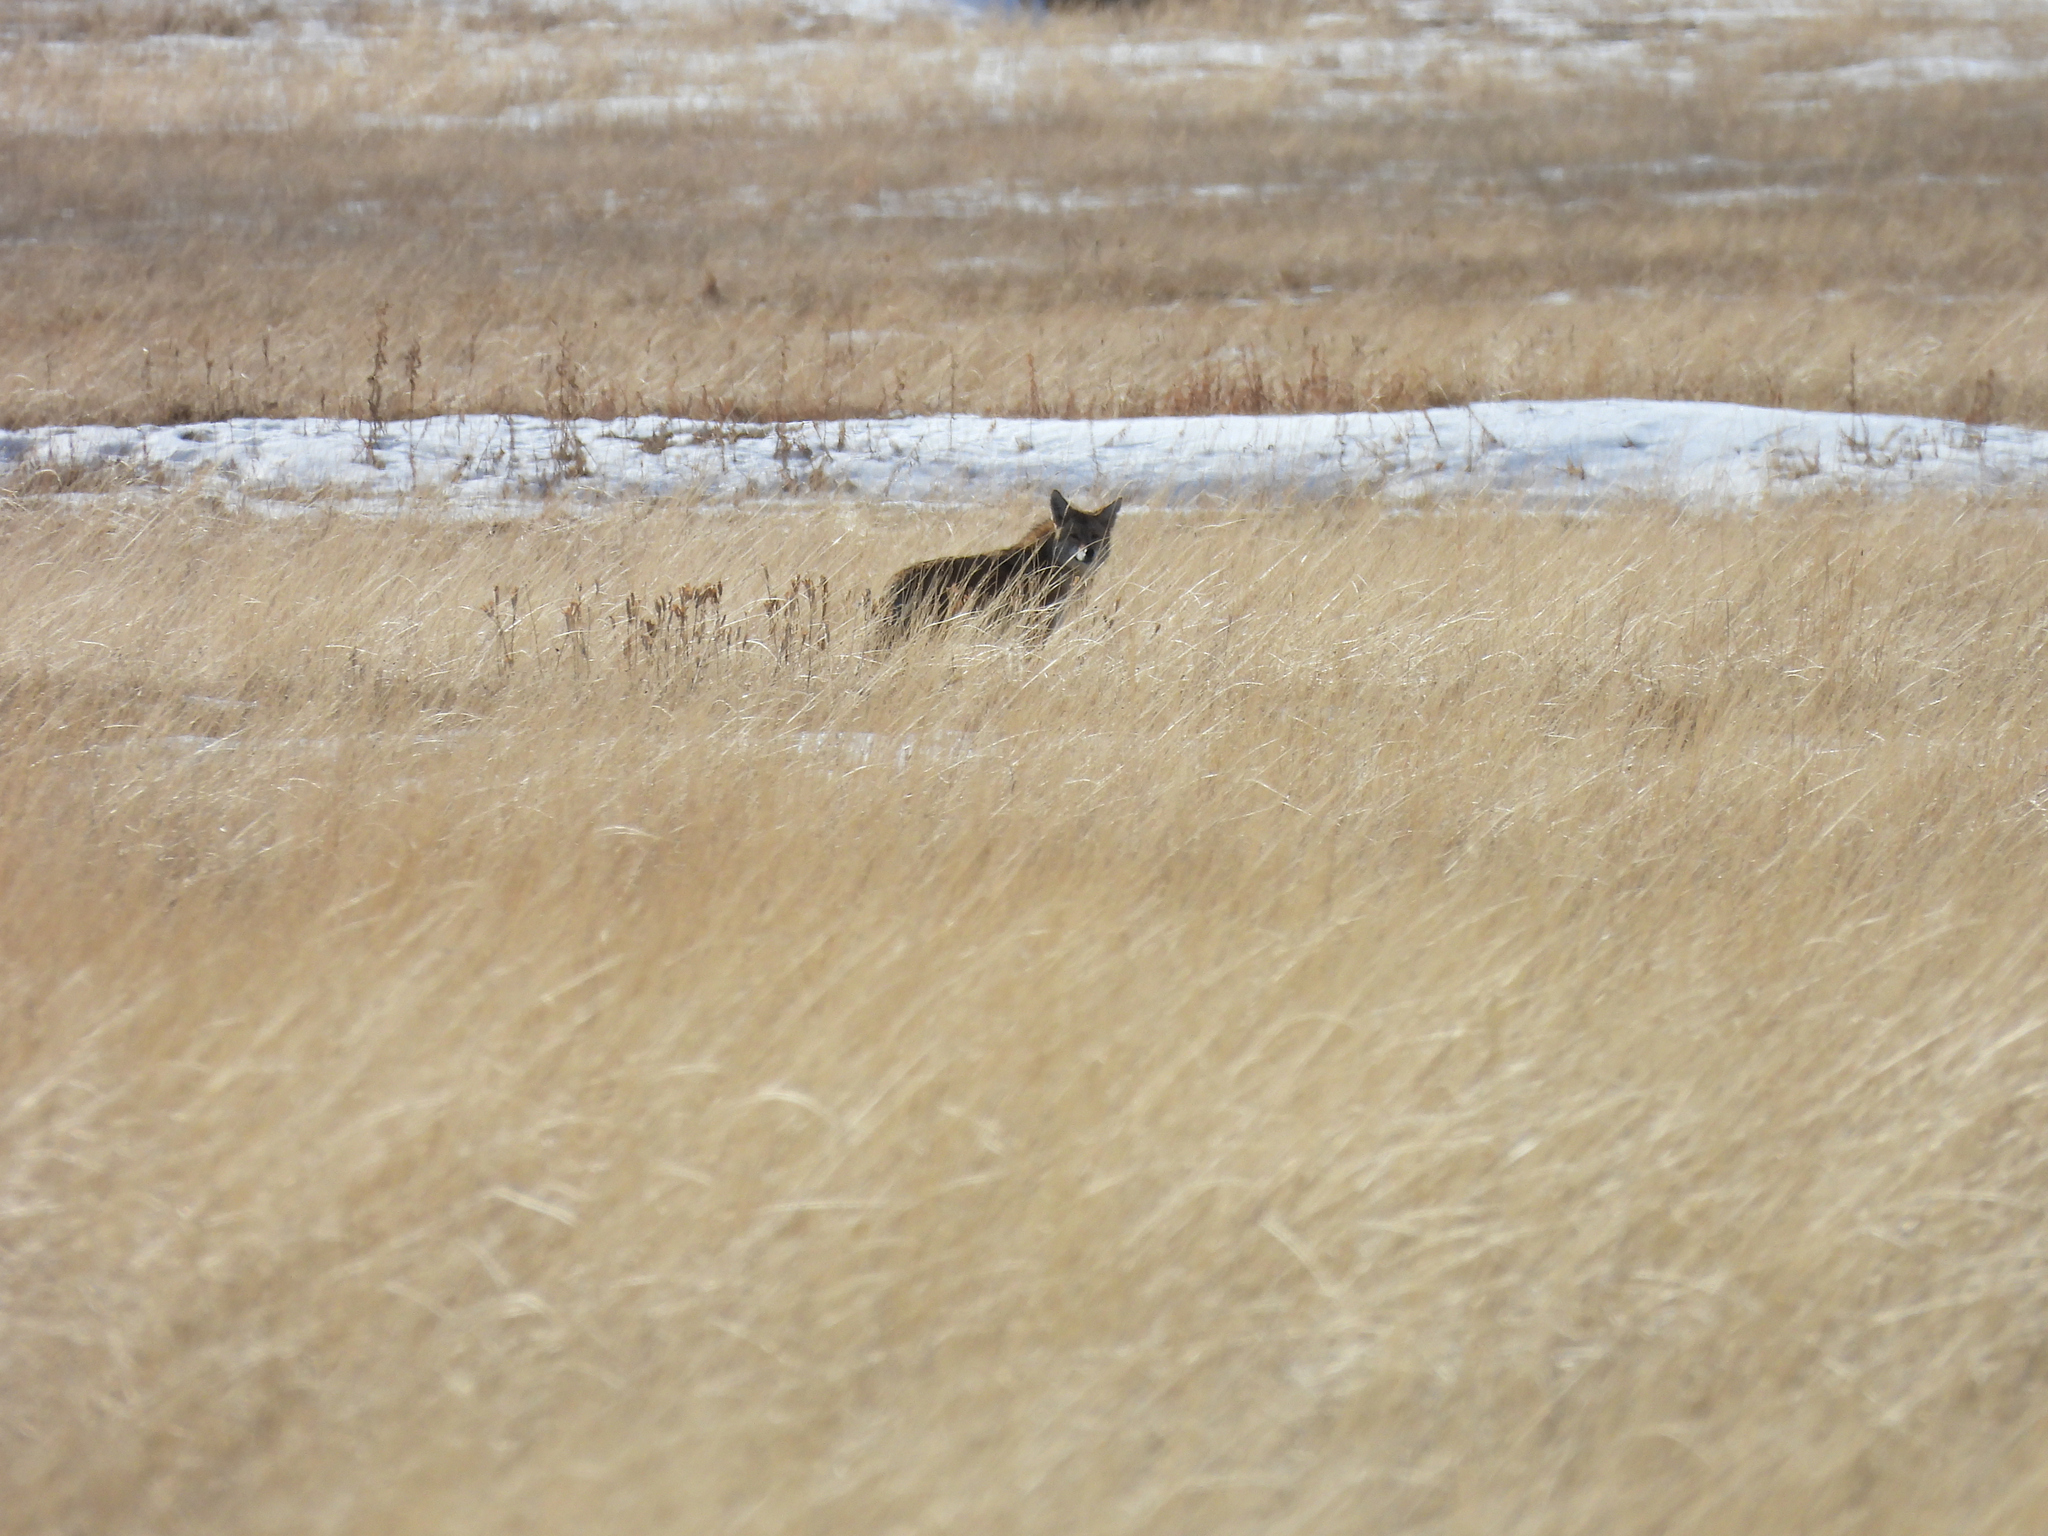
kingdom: Animalia
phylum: Chordata
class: Mammalia
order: Carnivora
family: Canidae
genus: Canis
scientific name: Canis latrans
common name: Coyote
